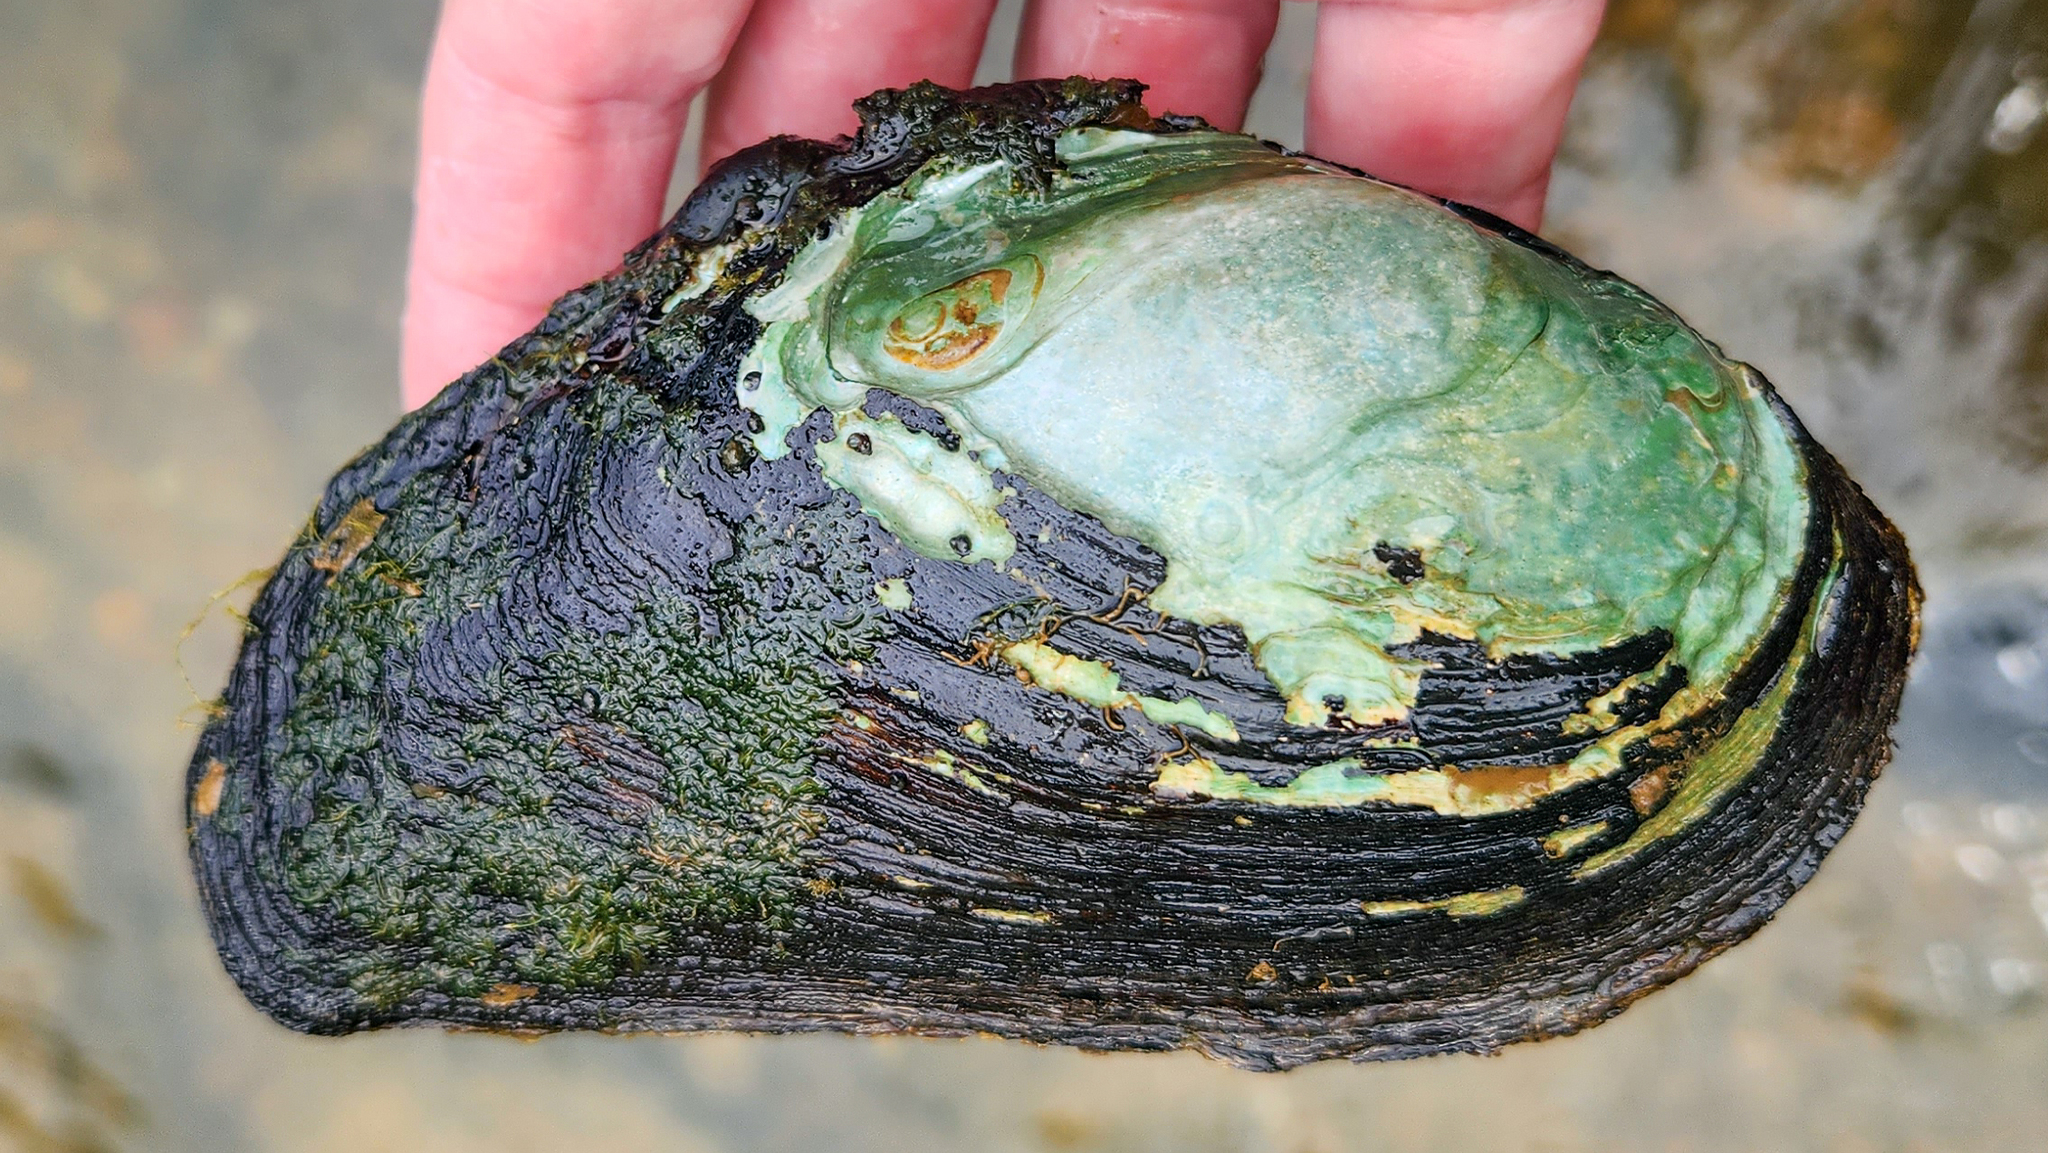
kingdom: Animalia
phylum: Mollusca
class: Bivalvia
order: Unionida
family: Unionidae
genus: Elliptio
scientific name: Elliptio crassidens
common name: Blue ham
